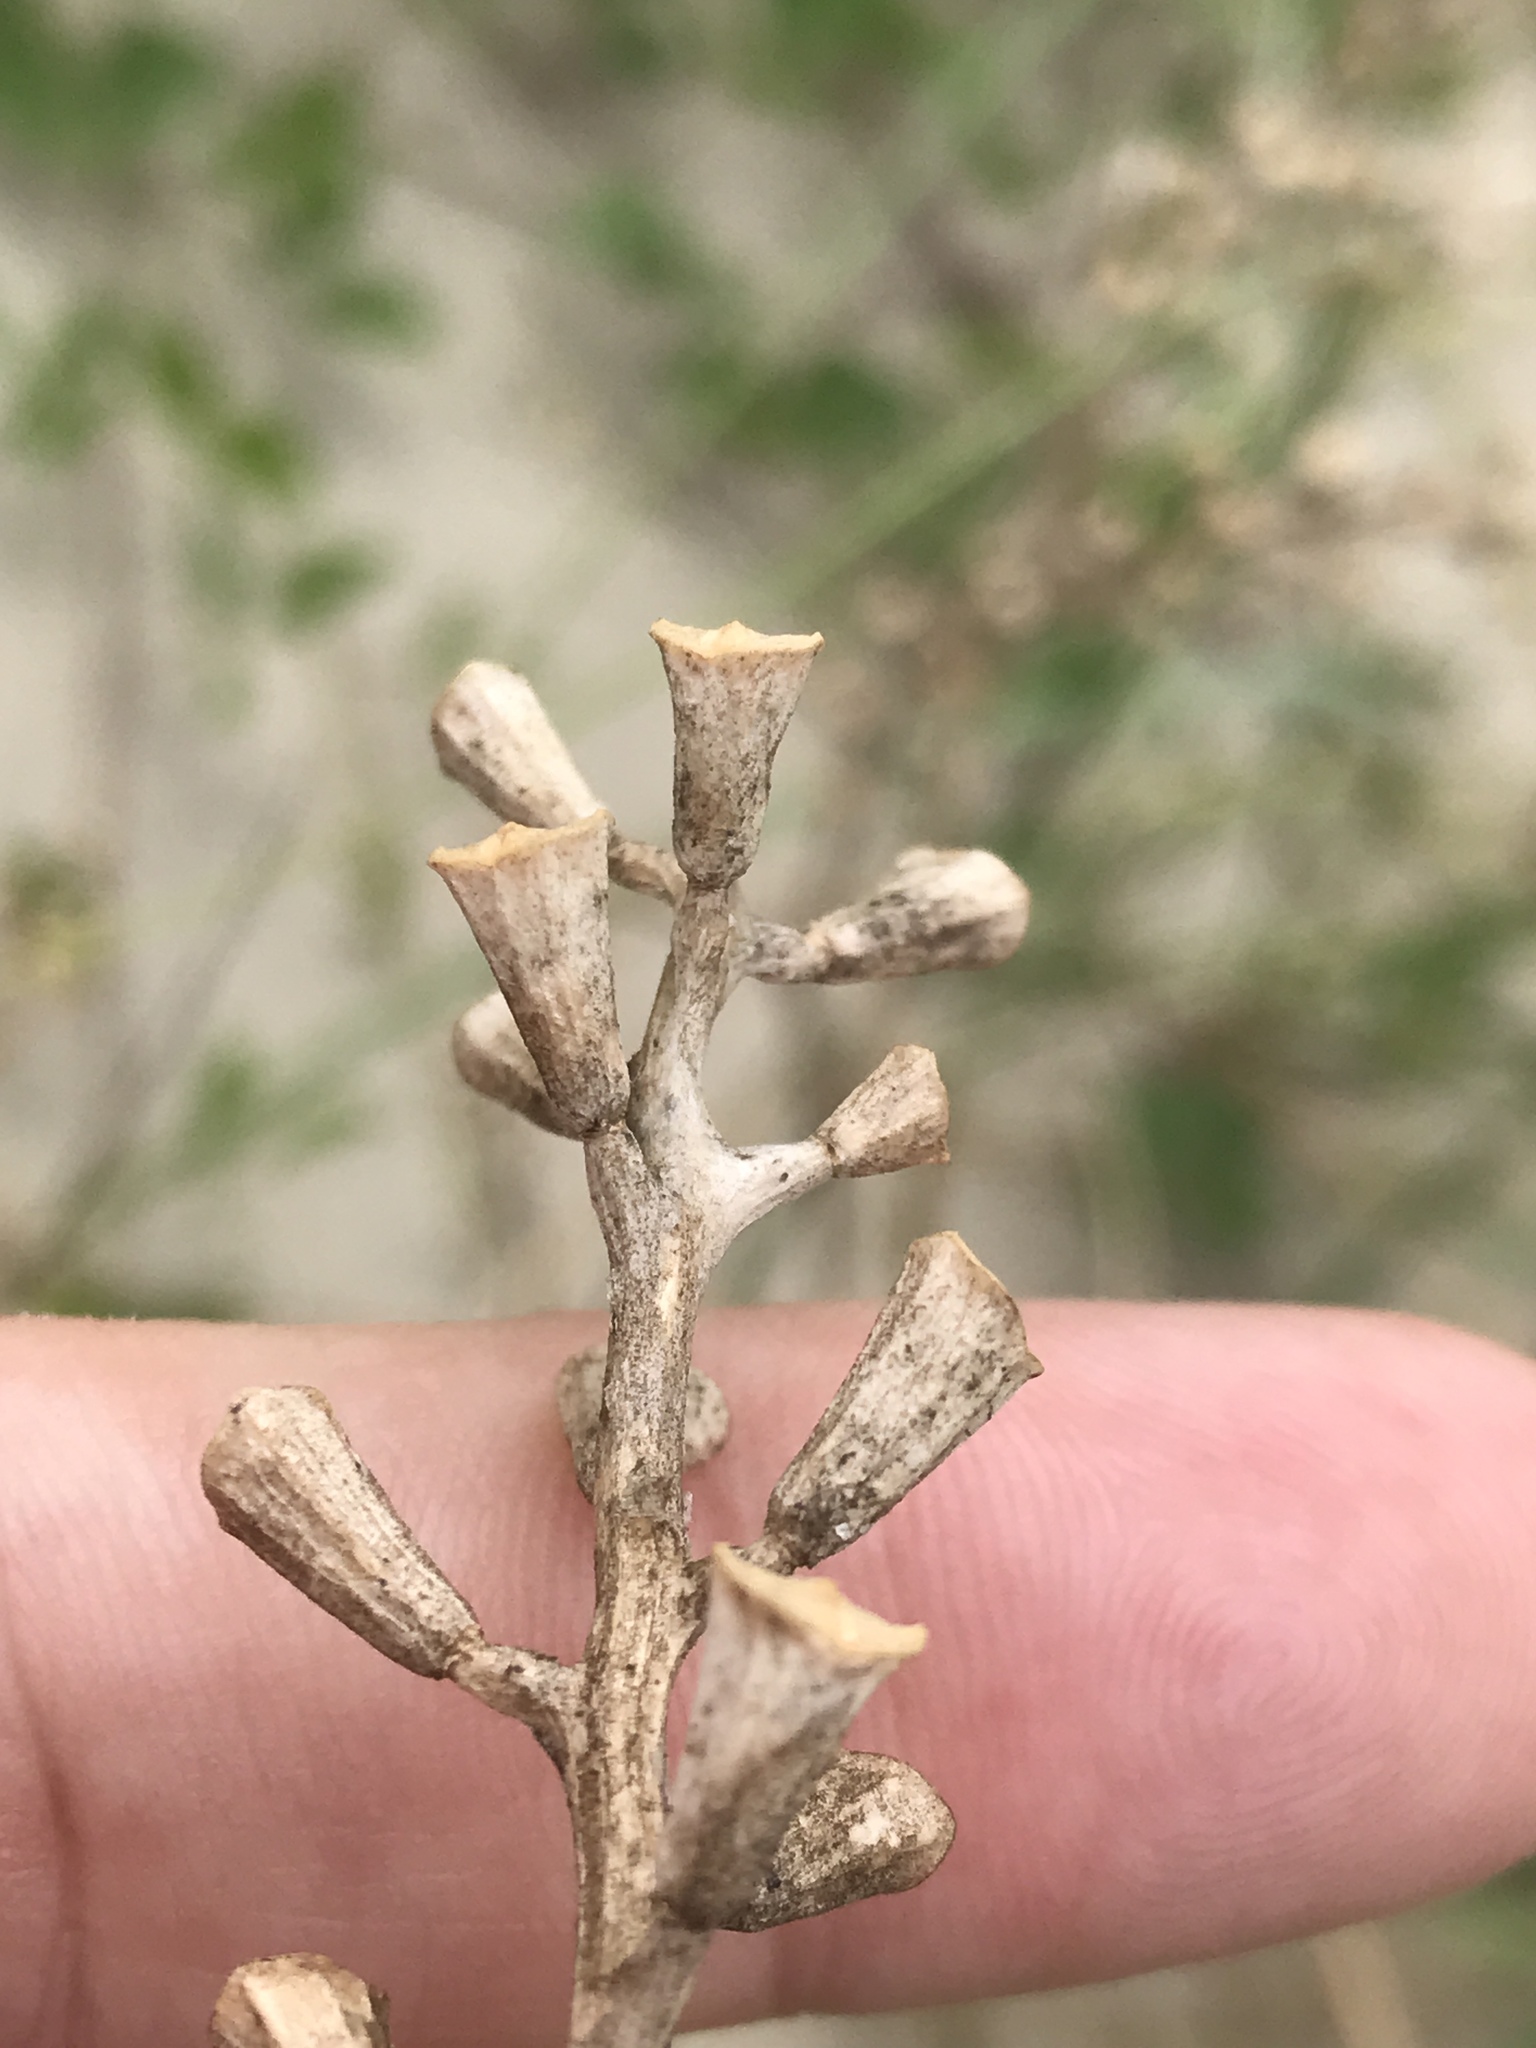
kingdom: Plantae
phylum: Tracheophyta
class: Magnoliopsida
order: Brassicales
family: Brassicaceae
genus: Cakile
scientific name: Cakile edentula
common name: American sea rocket
